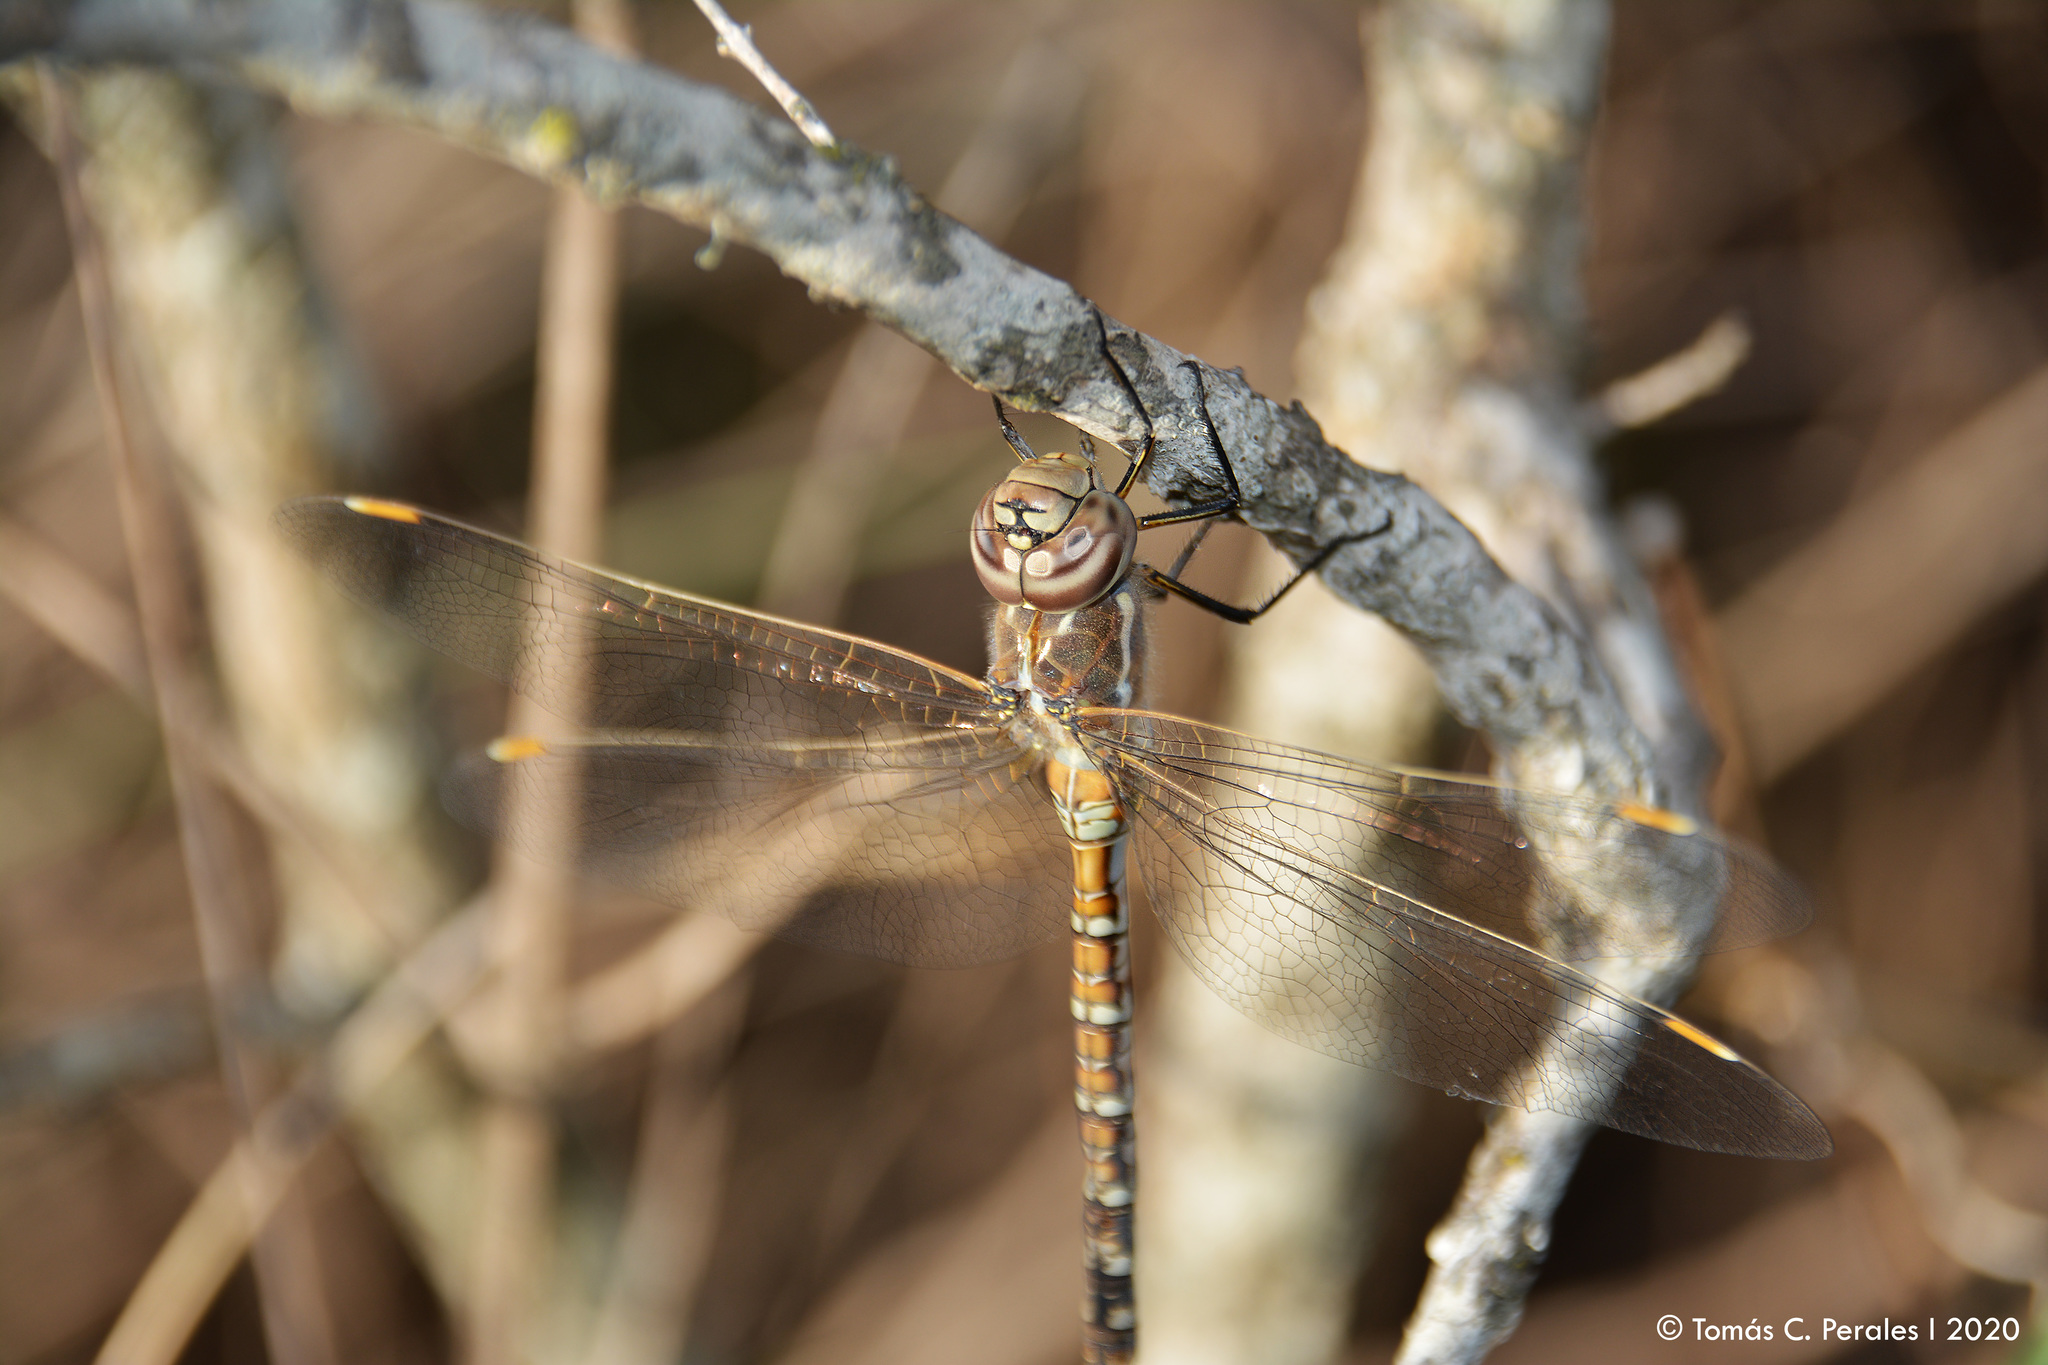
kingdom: Animalia
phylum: Arthropoda
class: Insecta
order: Odonata
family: Aeshnidae
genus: Rhionaeschna
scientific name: Rhionaeschna absoluta
